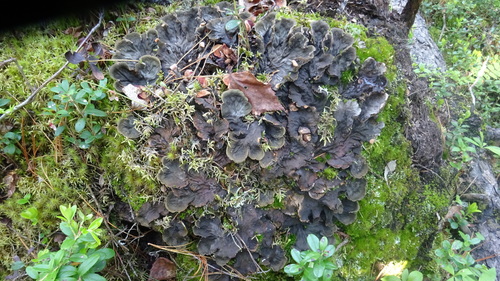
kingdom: Fungi
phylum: Ascomycota
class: Lecanoromycetes
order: Peltigerales
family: Peltigeraceae
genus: Peltigera
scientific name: Peltigera
